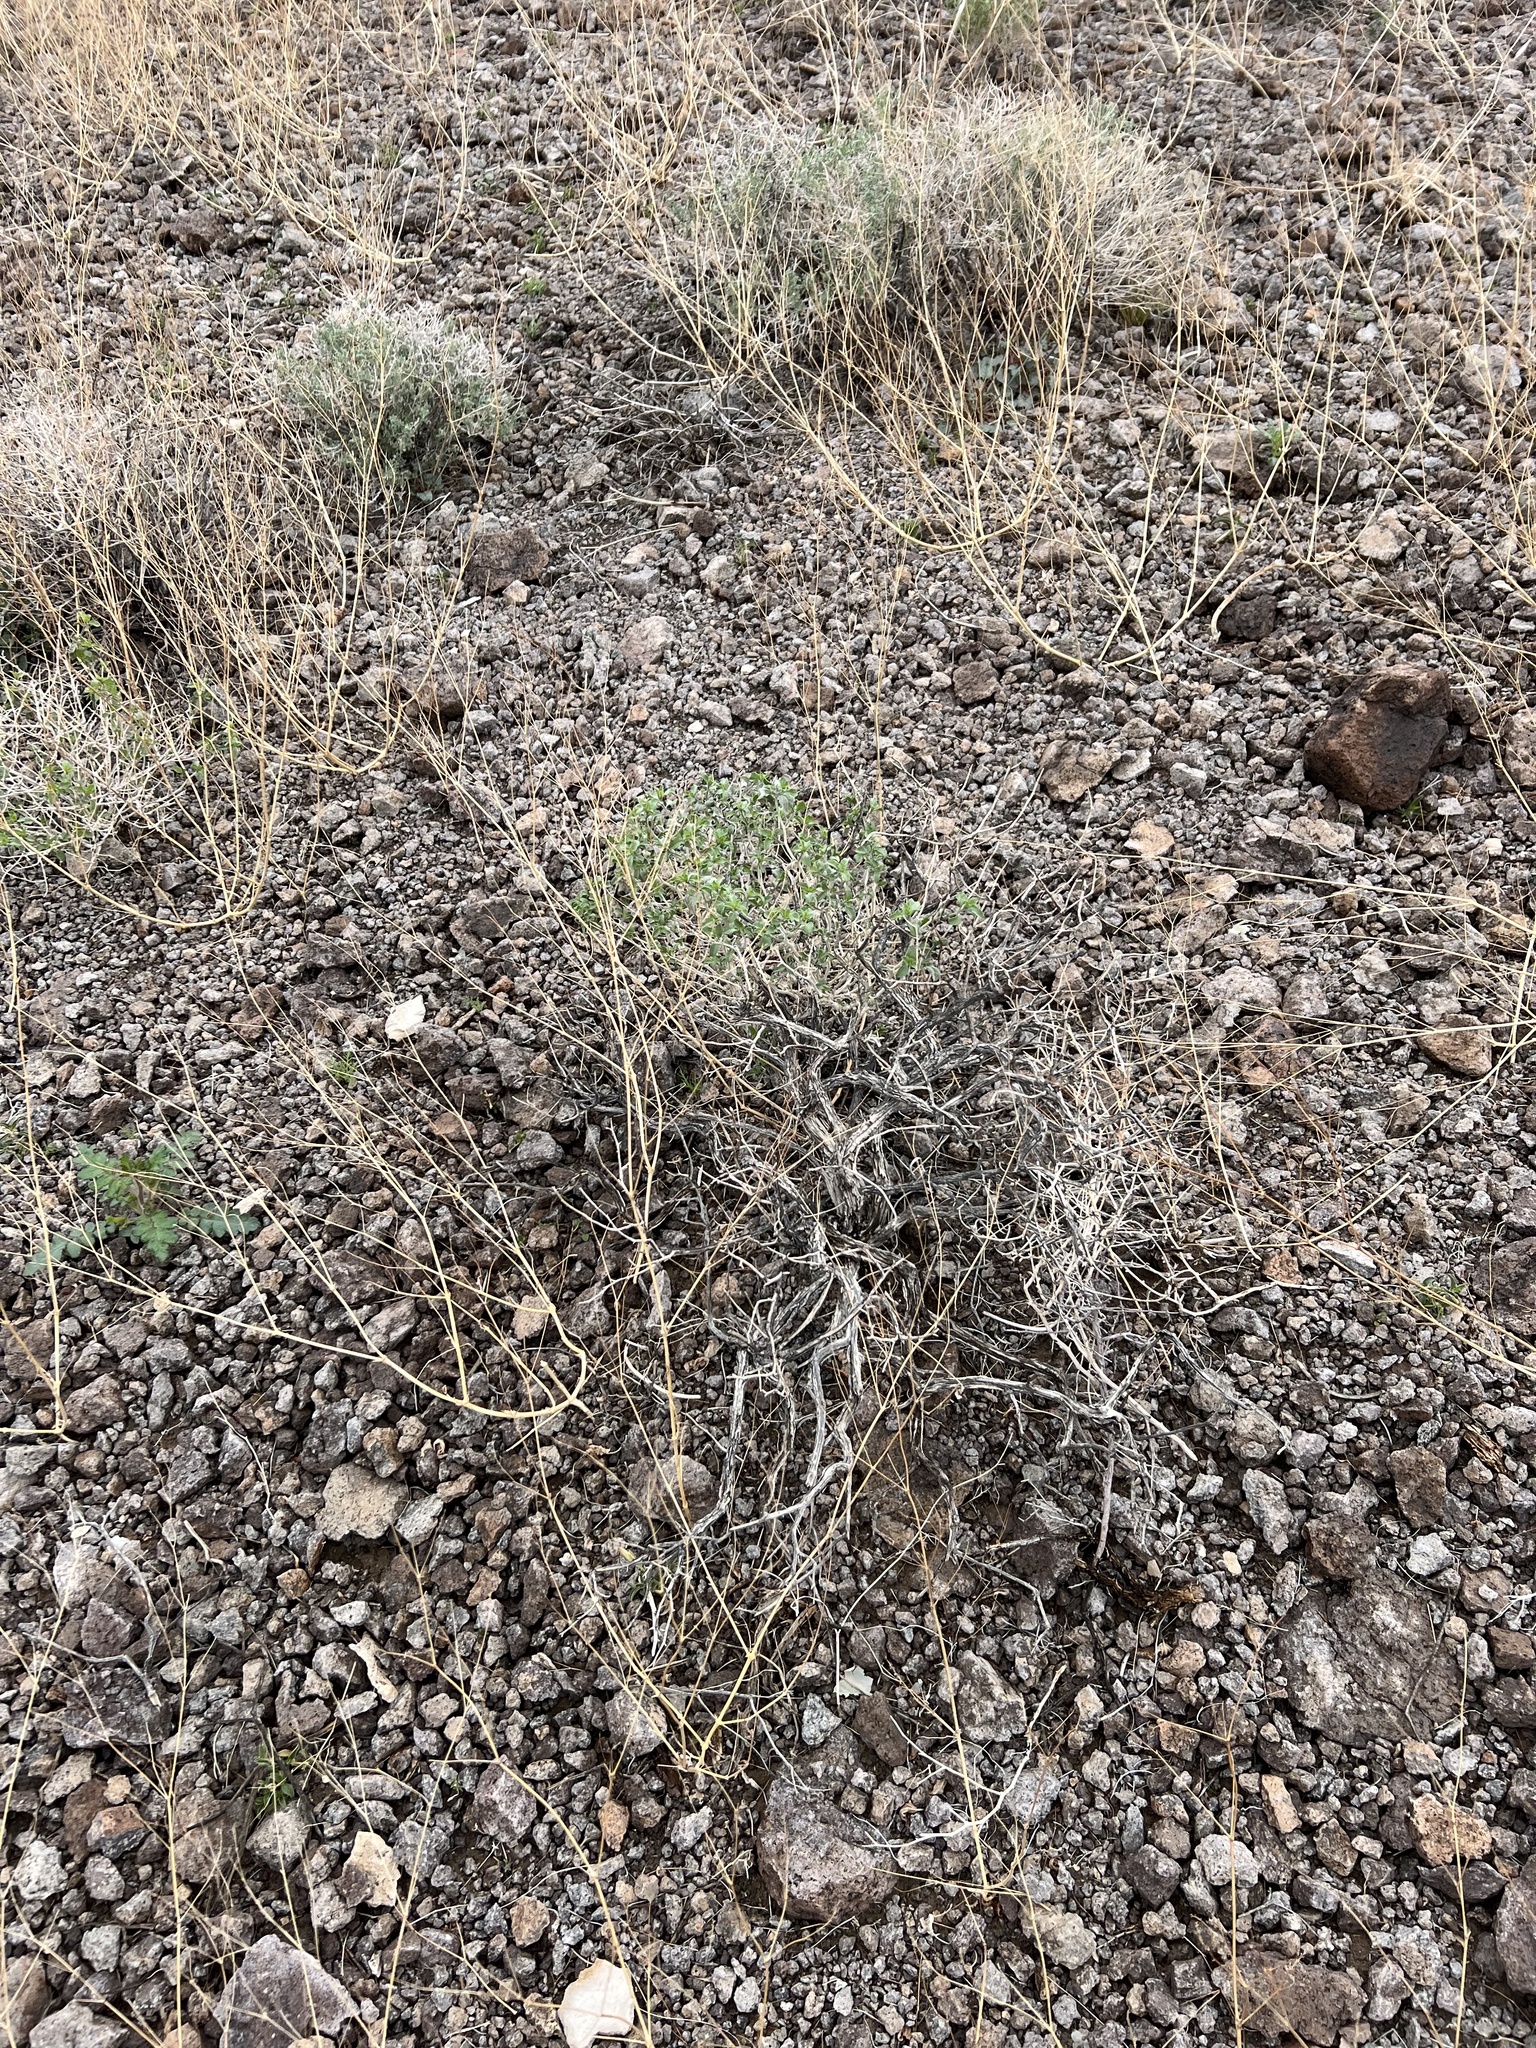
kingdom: Plantae
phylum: Tracheophyta
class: Magnoliopsida
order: Asterales
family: Asteraceae
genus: Encelia
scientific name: Encelia virginensis
